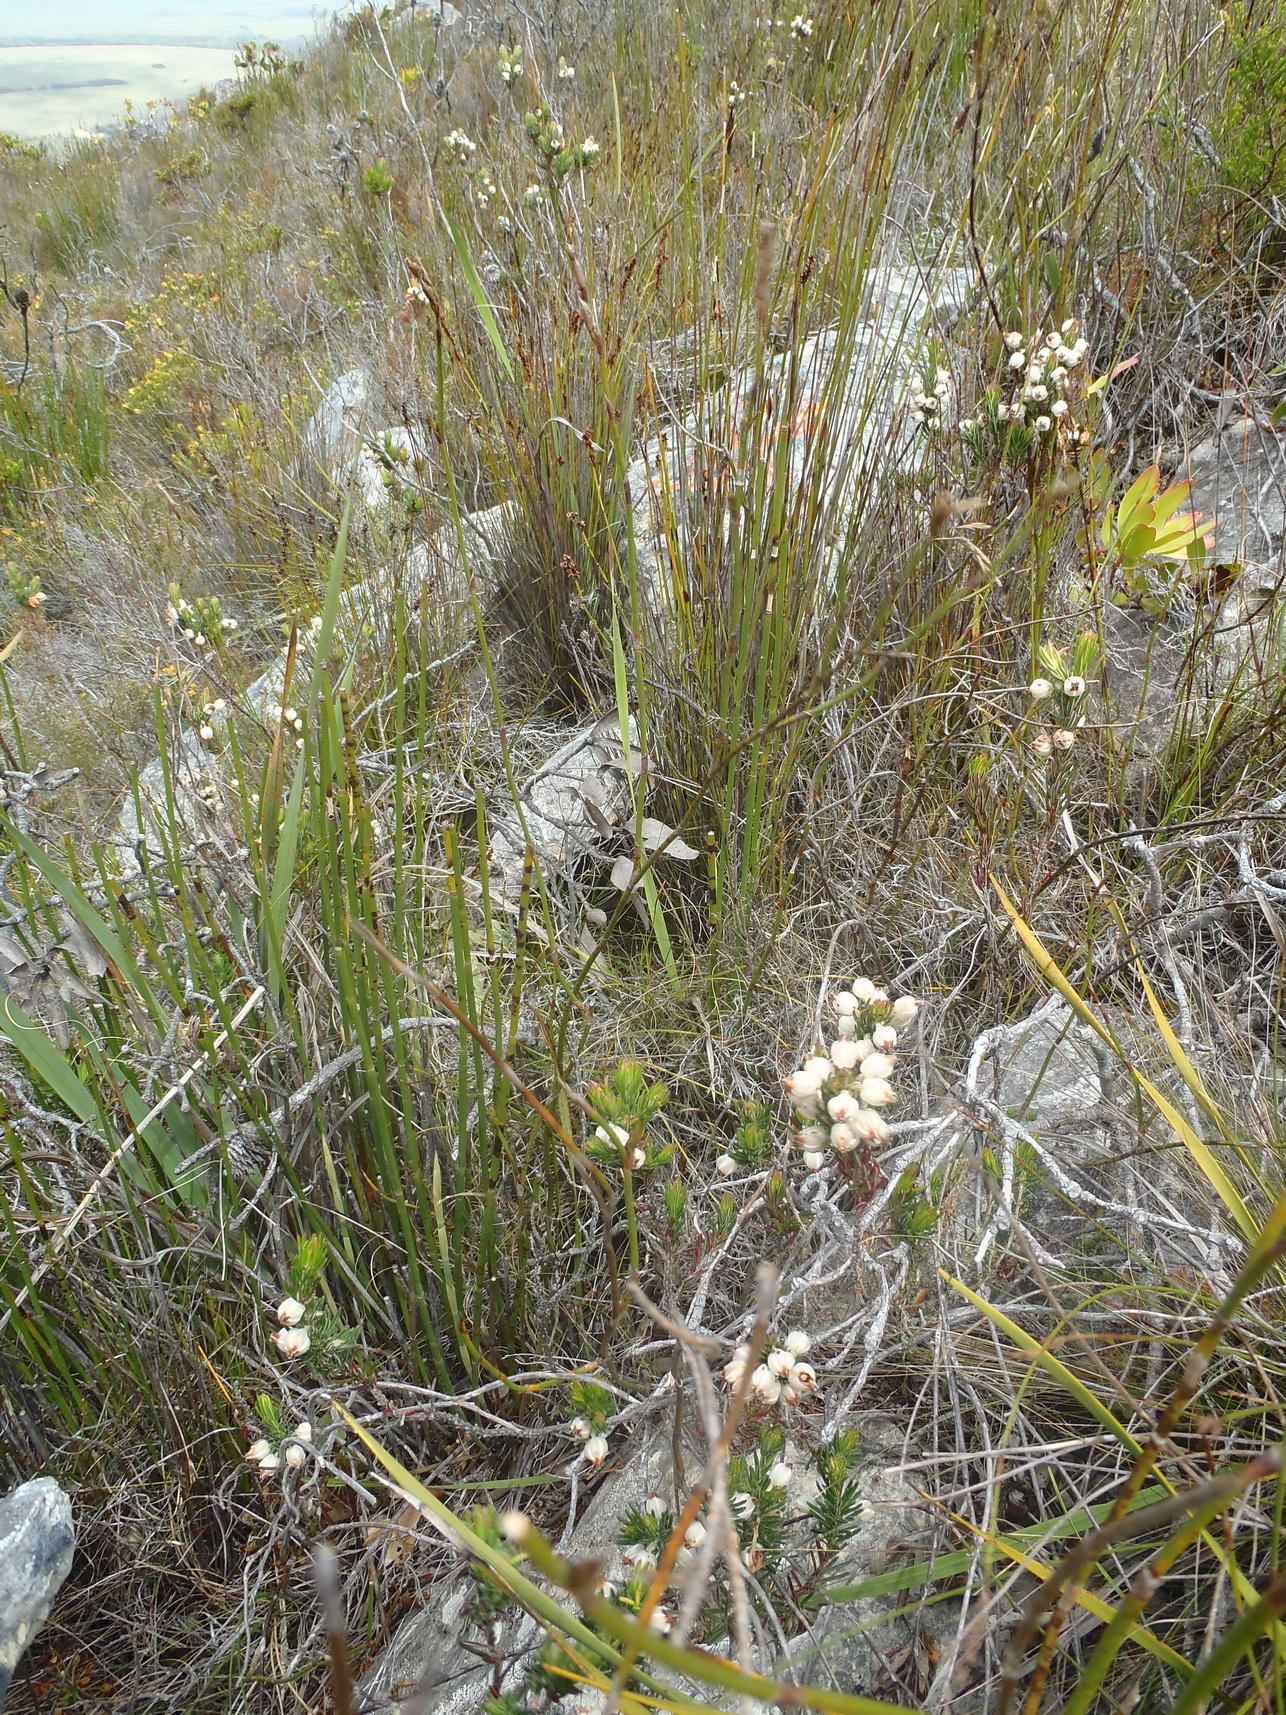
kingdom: Plantae
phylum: Tracheophyta
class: Magnoliopsida
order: Ericales
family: Ericaceae
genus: Erica
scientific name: Erica grisbrookii
